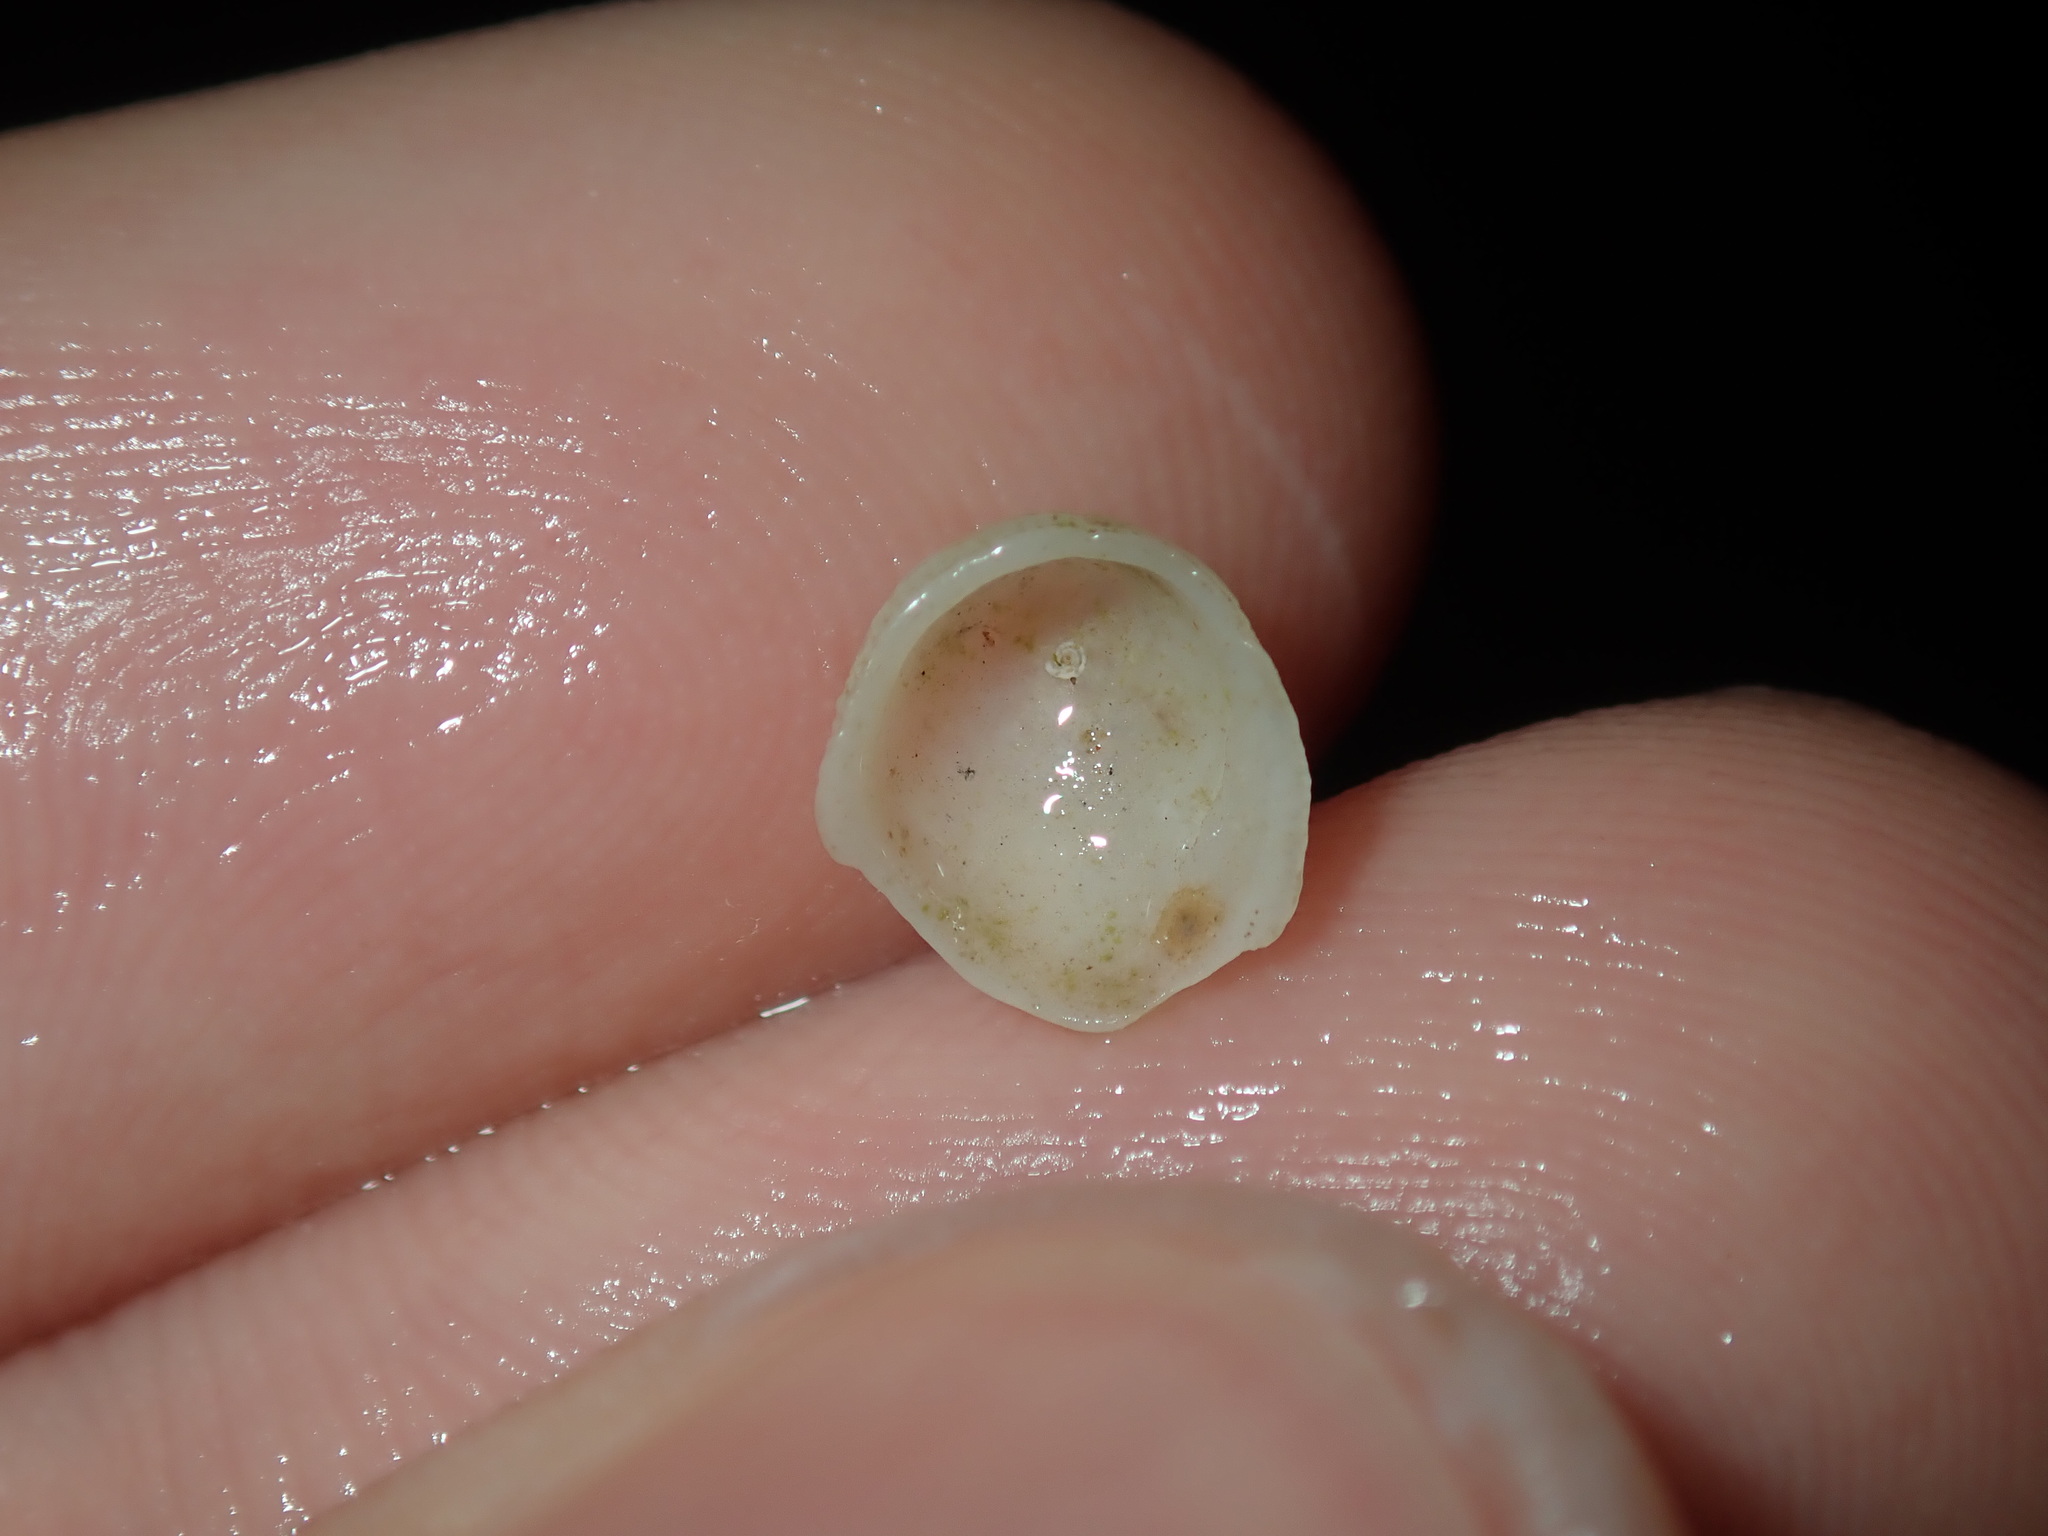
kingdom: Animalia
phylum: Mollusca
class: Gastropoda
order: Littorinimorpha
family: Hipponicidae
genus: Antisabia
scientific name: Antisabia foliacea
